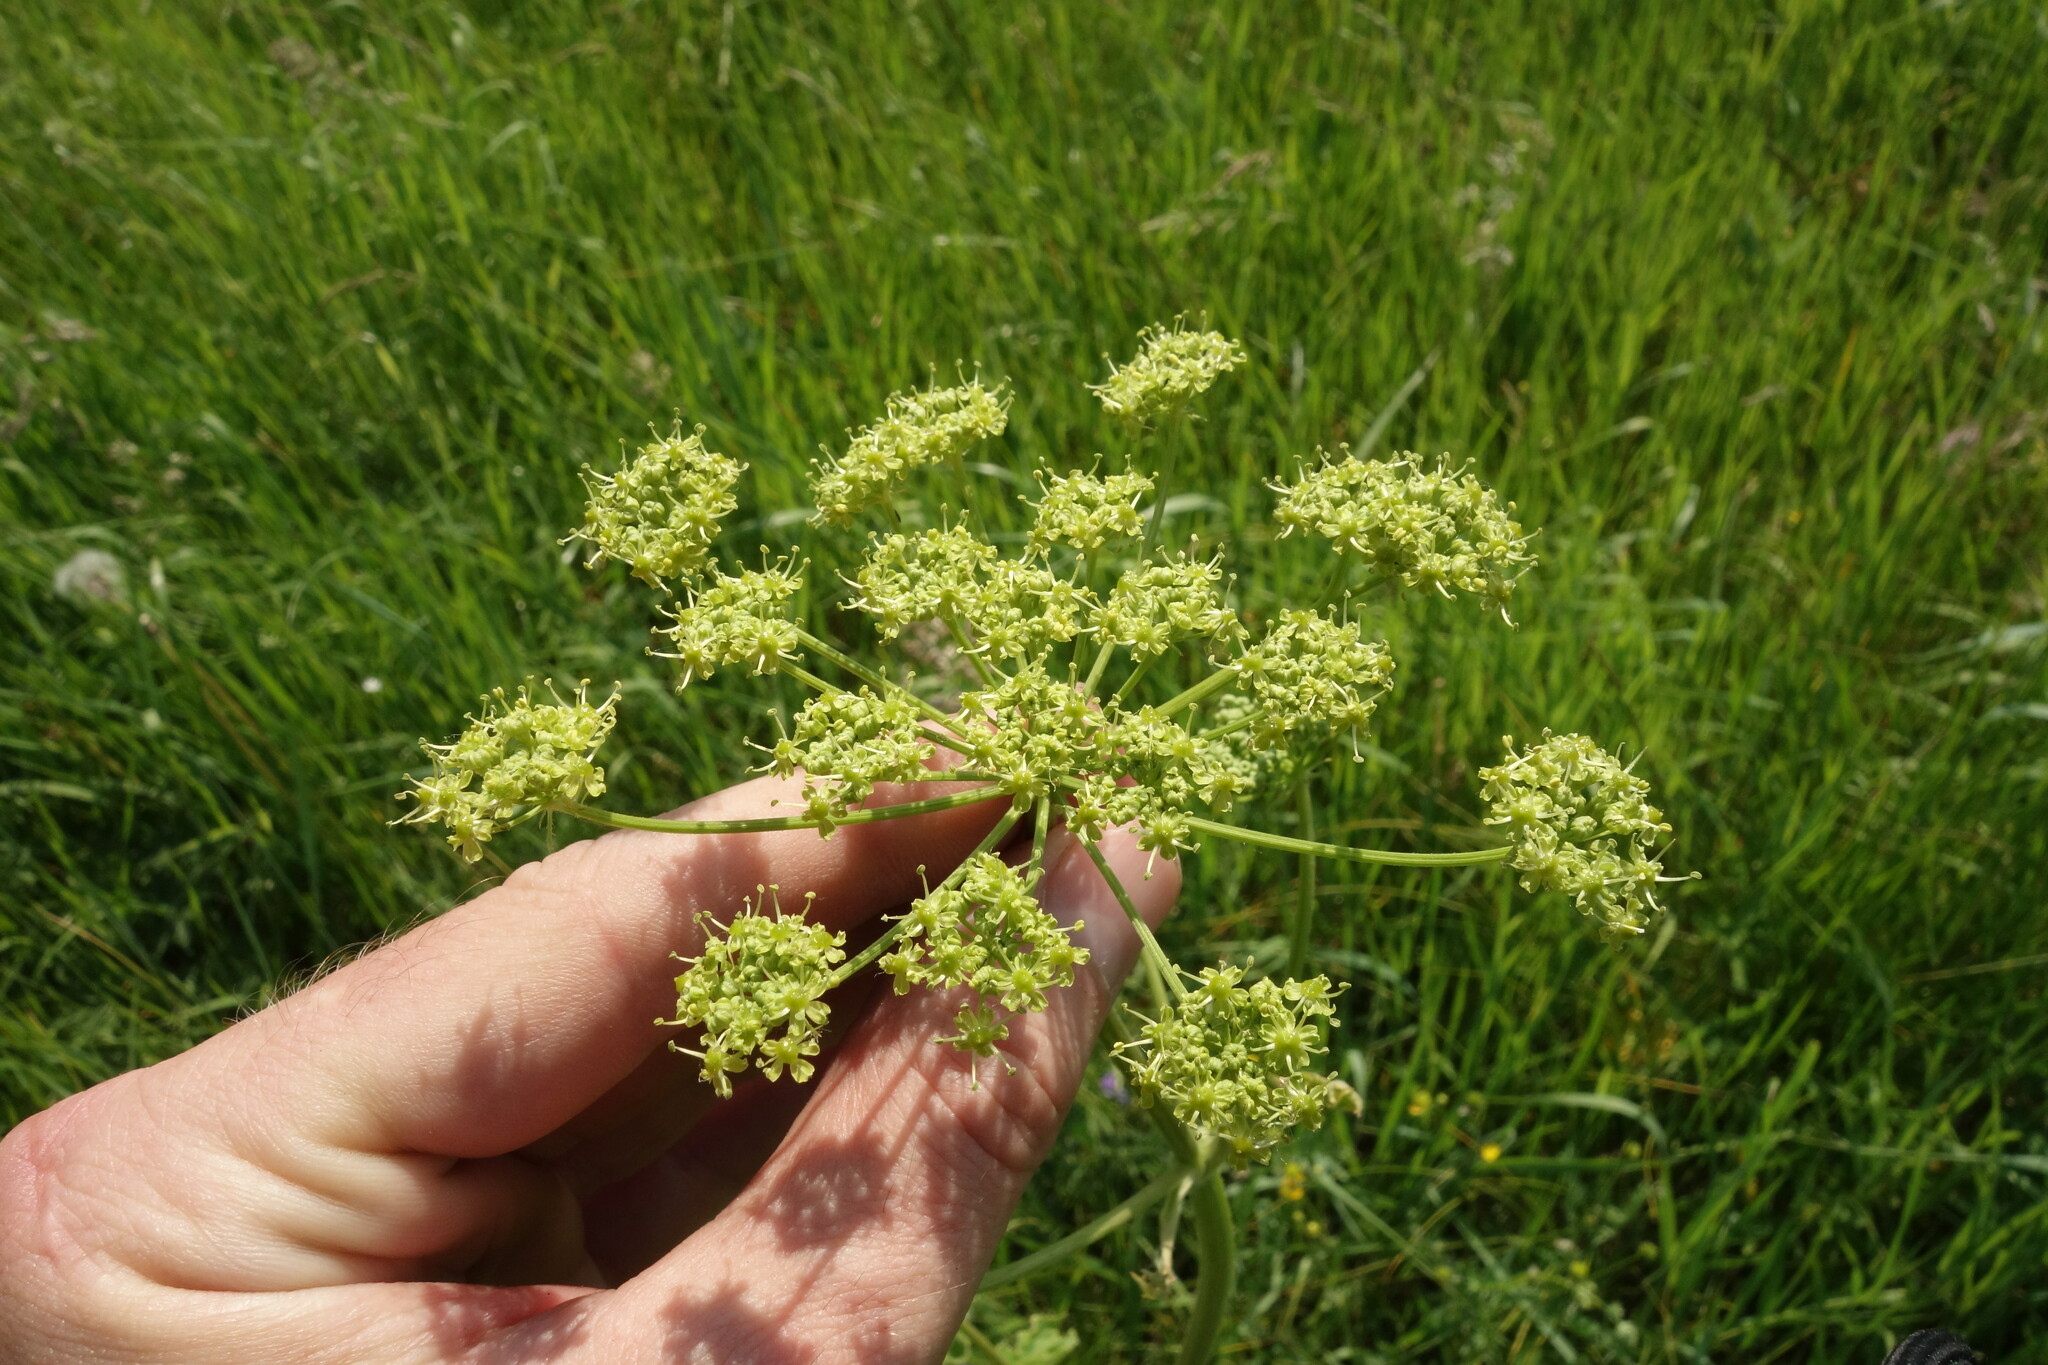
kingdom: Plantae
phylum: Tracheophyta
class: Magnoliopsida
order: Apiales
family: Apiaceae
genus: Heracleum
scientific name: Heracleum sphondylium
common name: Hogweed
